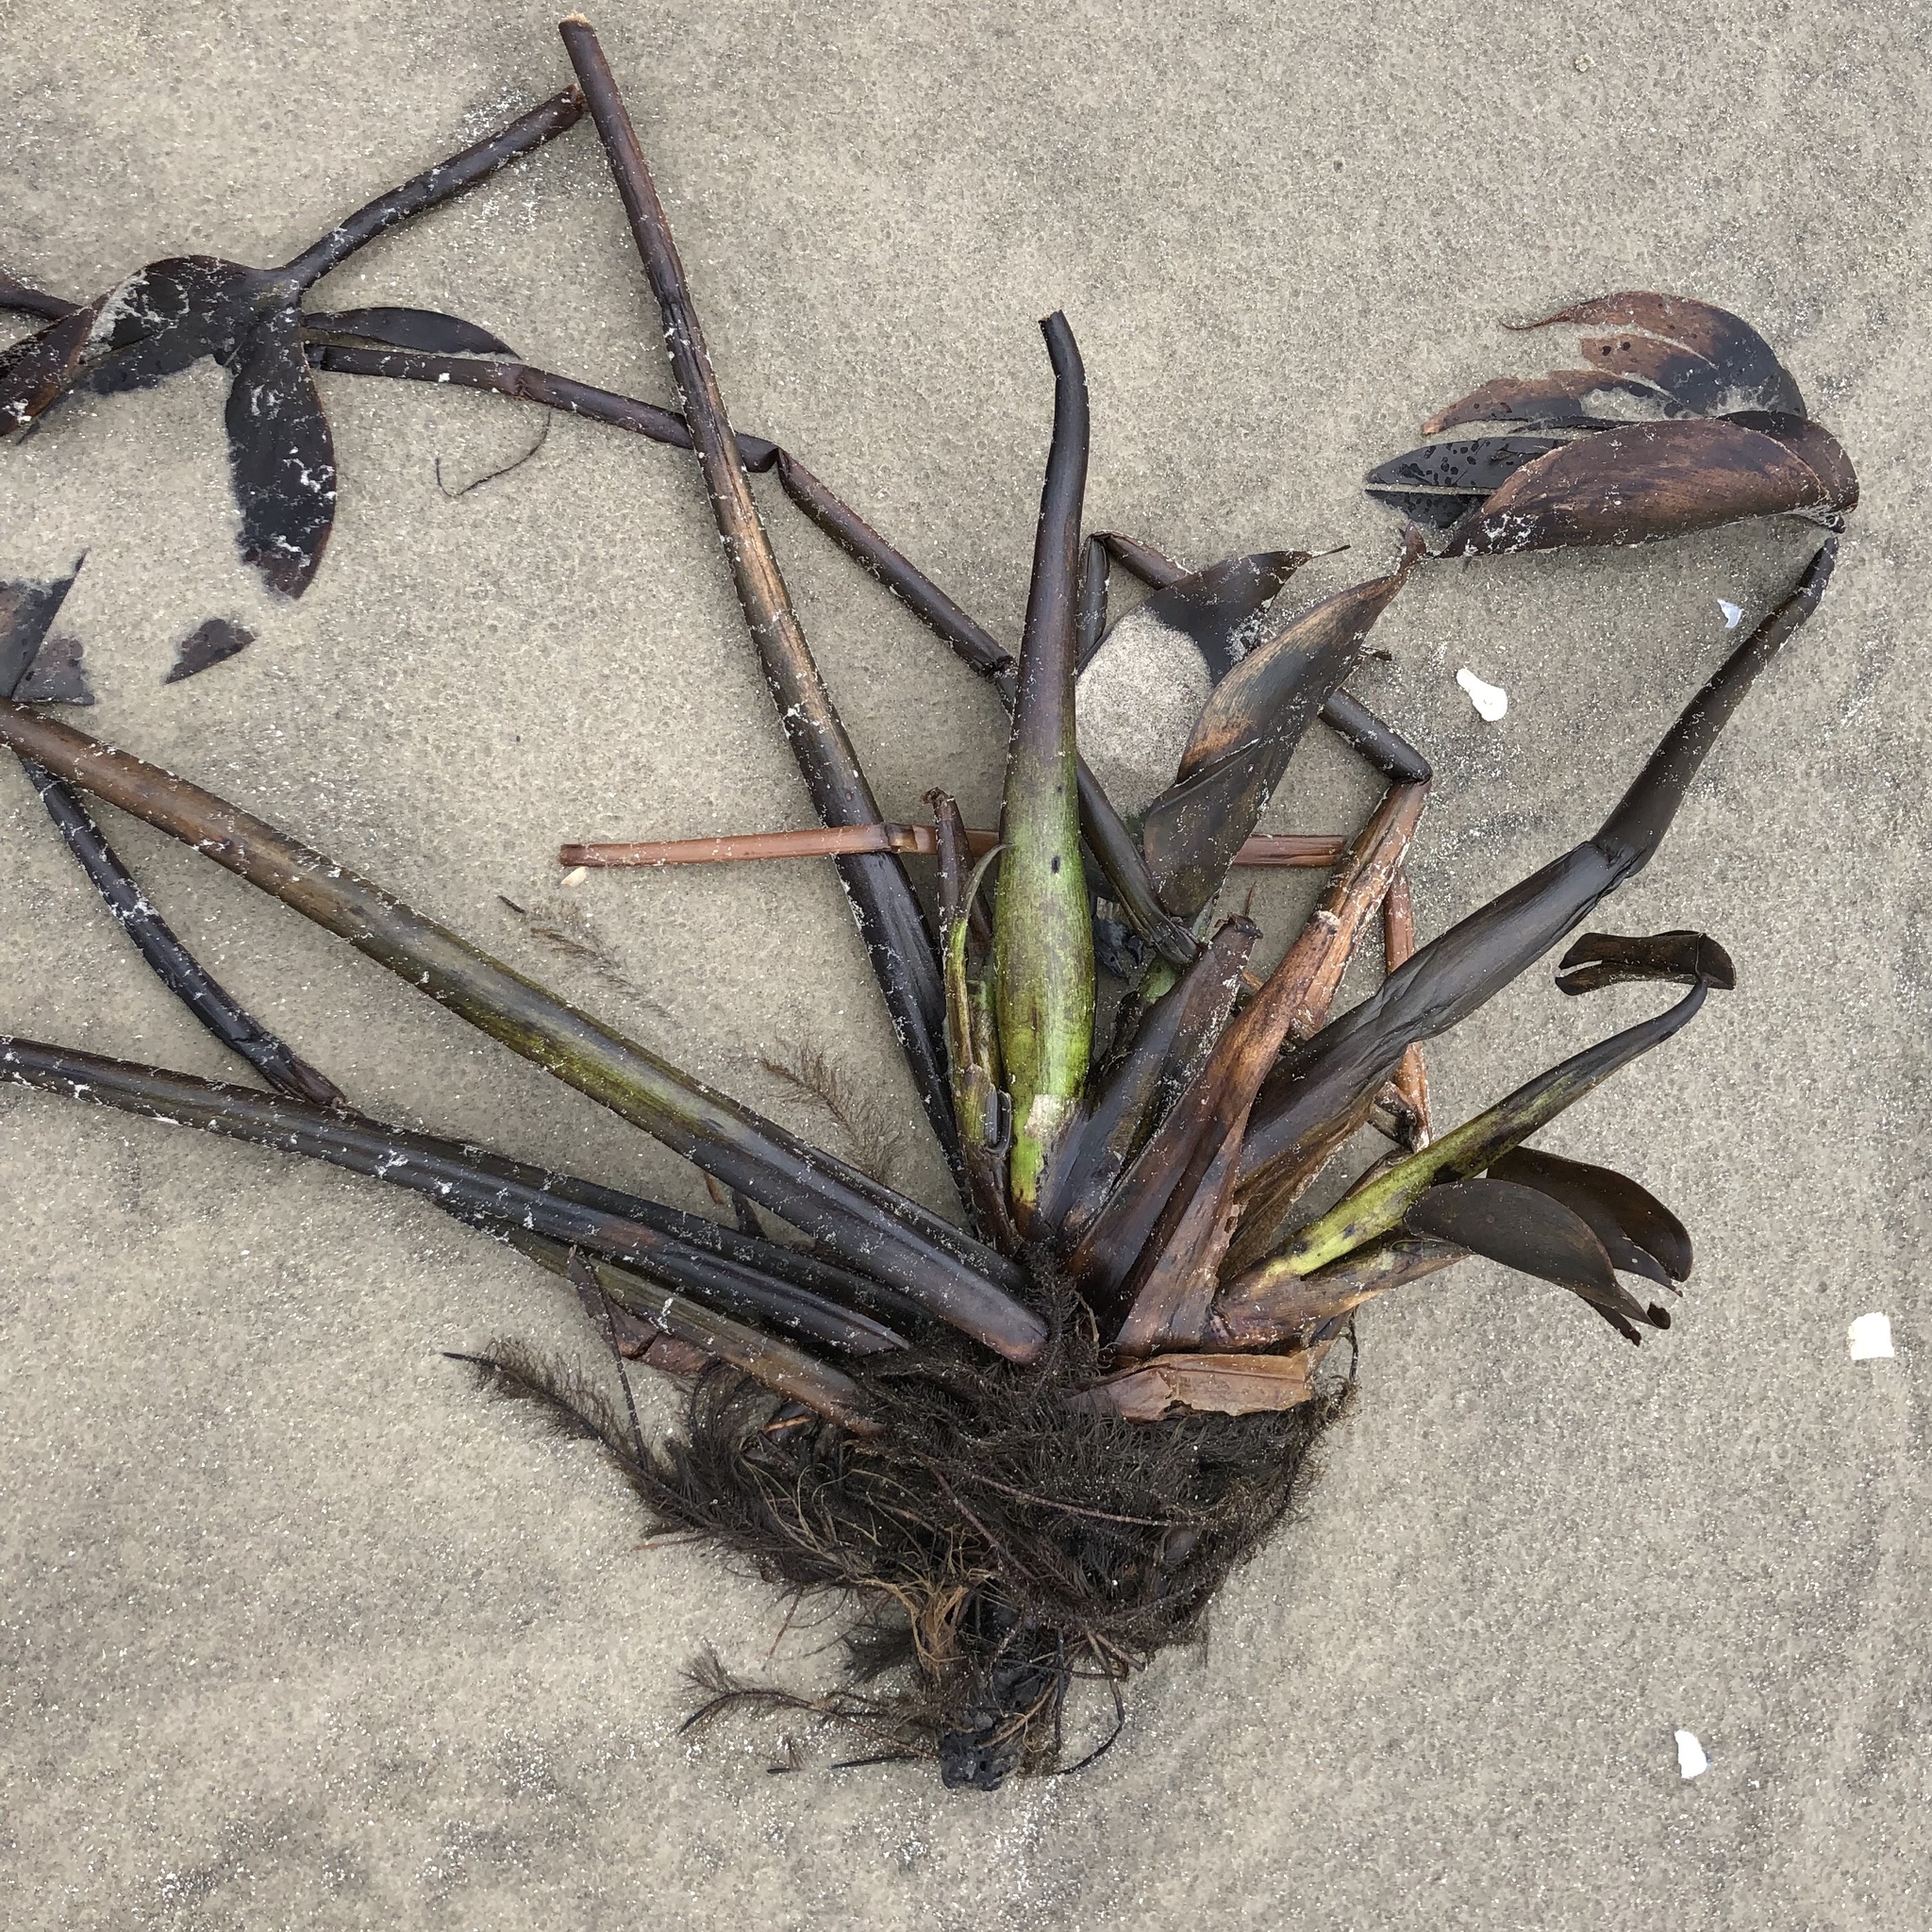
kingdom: Plantae
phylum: Tracheophyta
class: Liliopsida
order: Commelinales
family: Pontederiaceae
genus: Pontederia
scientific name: Pontederia crassipes
